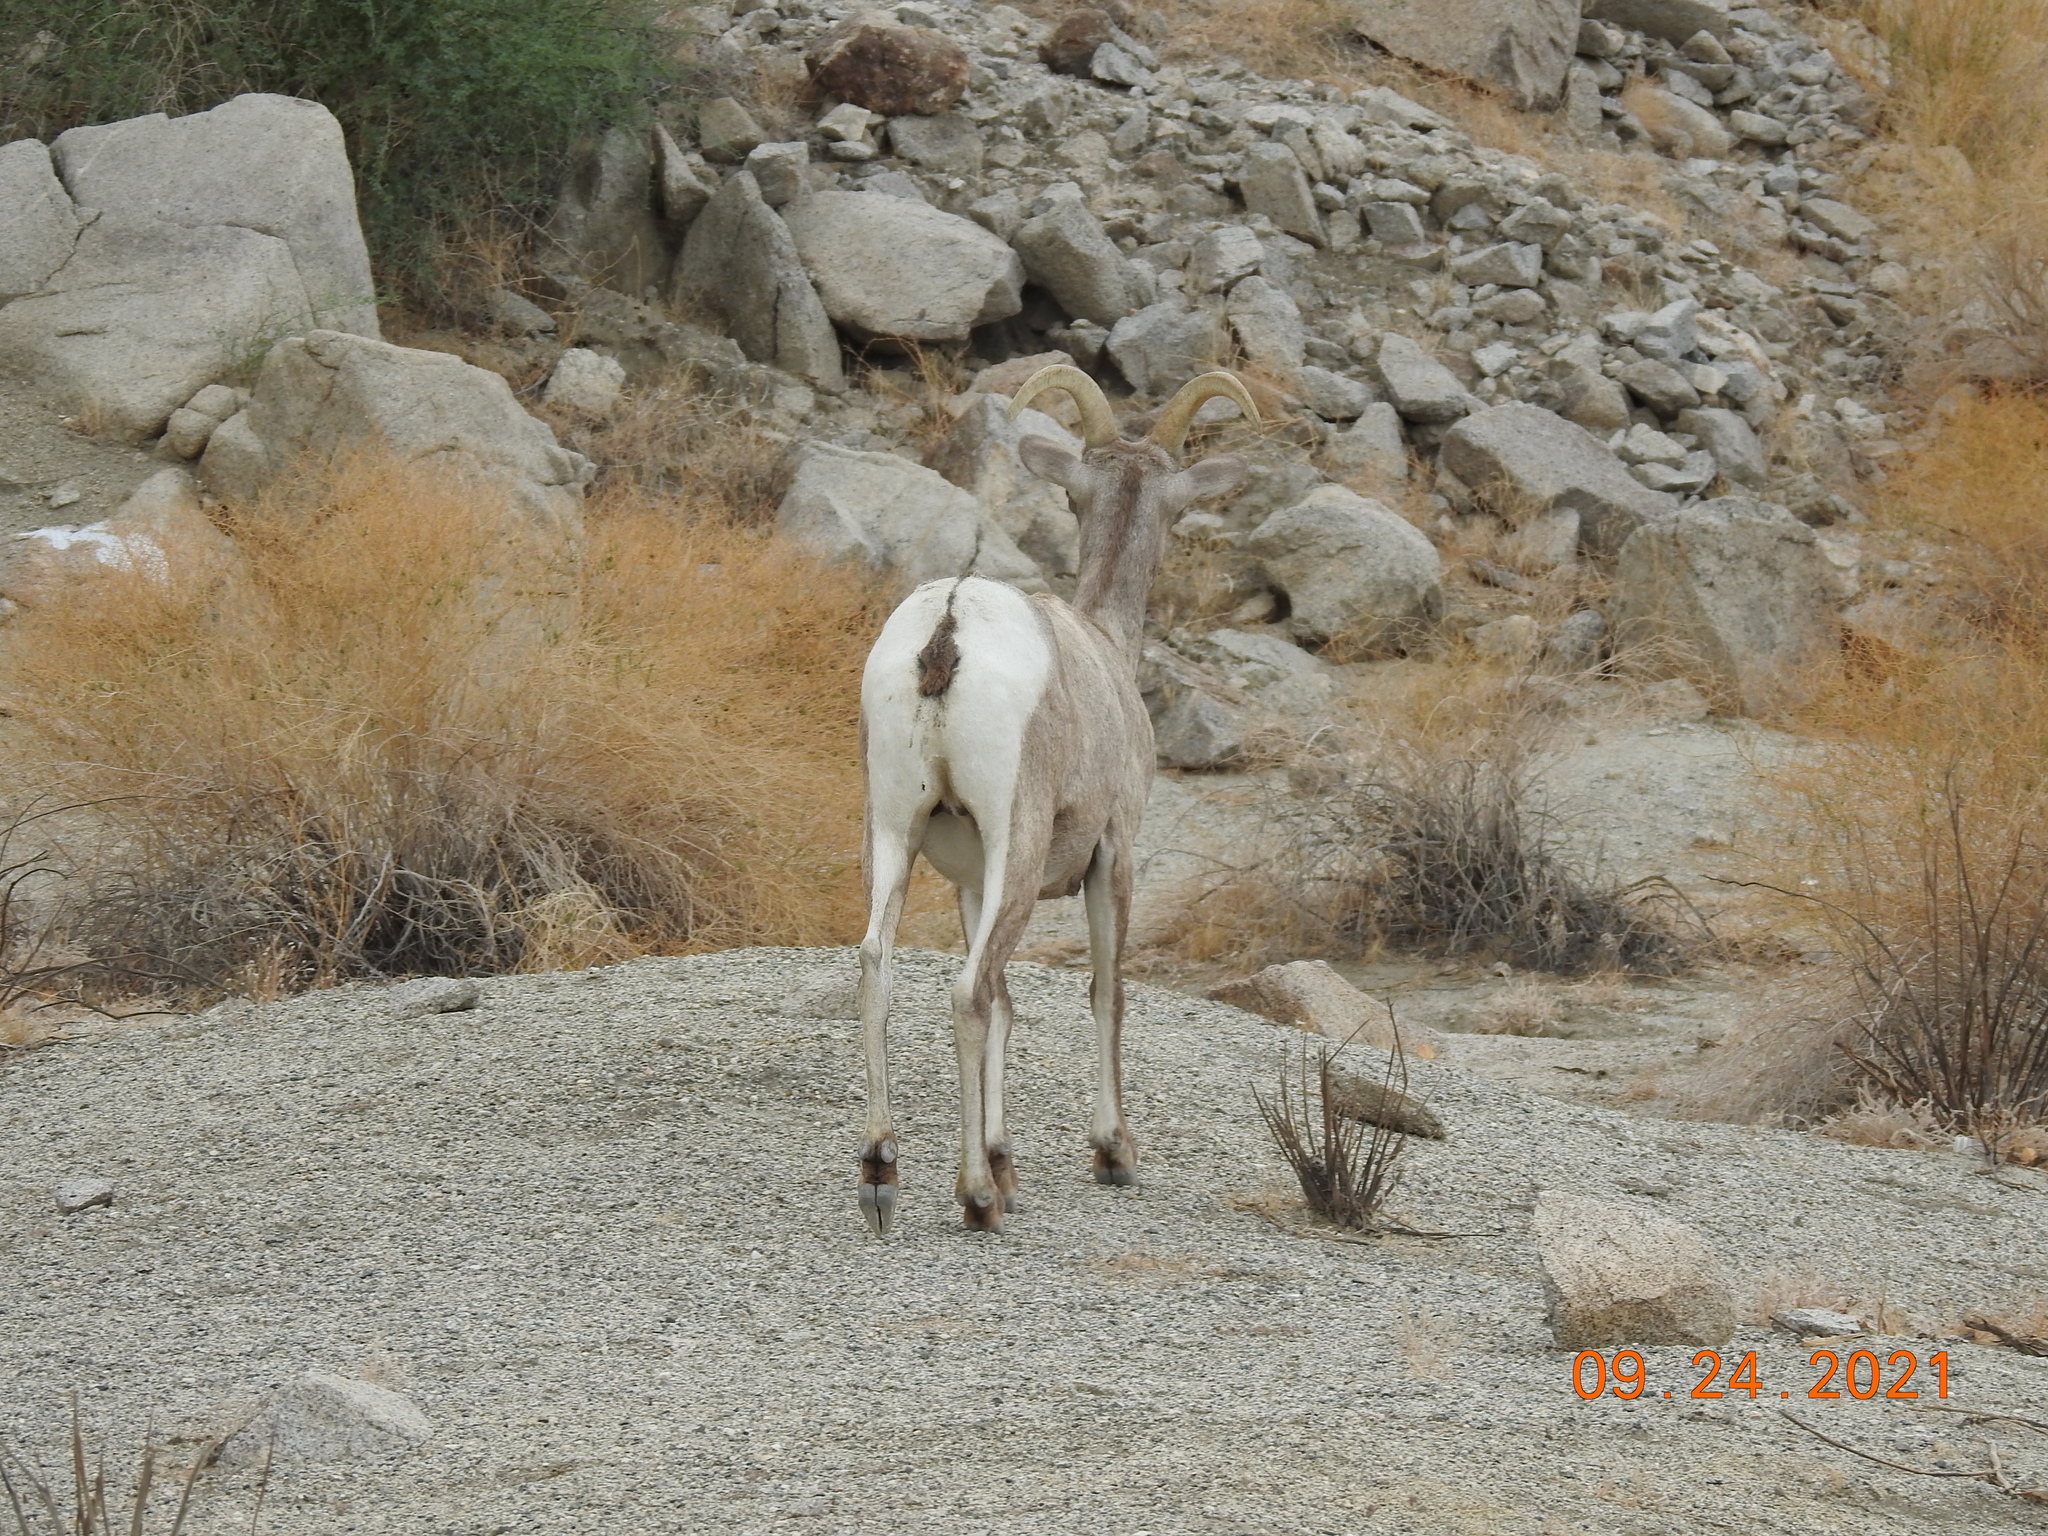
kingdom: Animalia
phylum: Chordata
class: Mammalia
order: Artiodactyla
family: Bovidae
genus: Ovis
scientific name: Ovis canadensis
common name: Bighorn sheep
